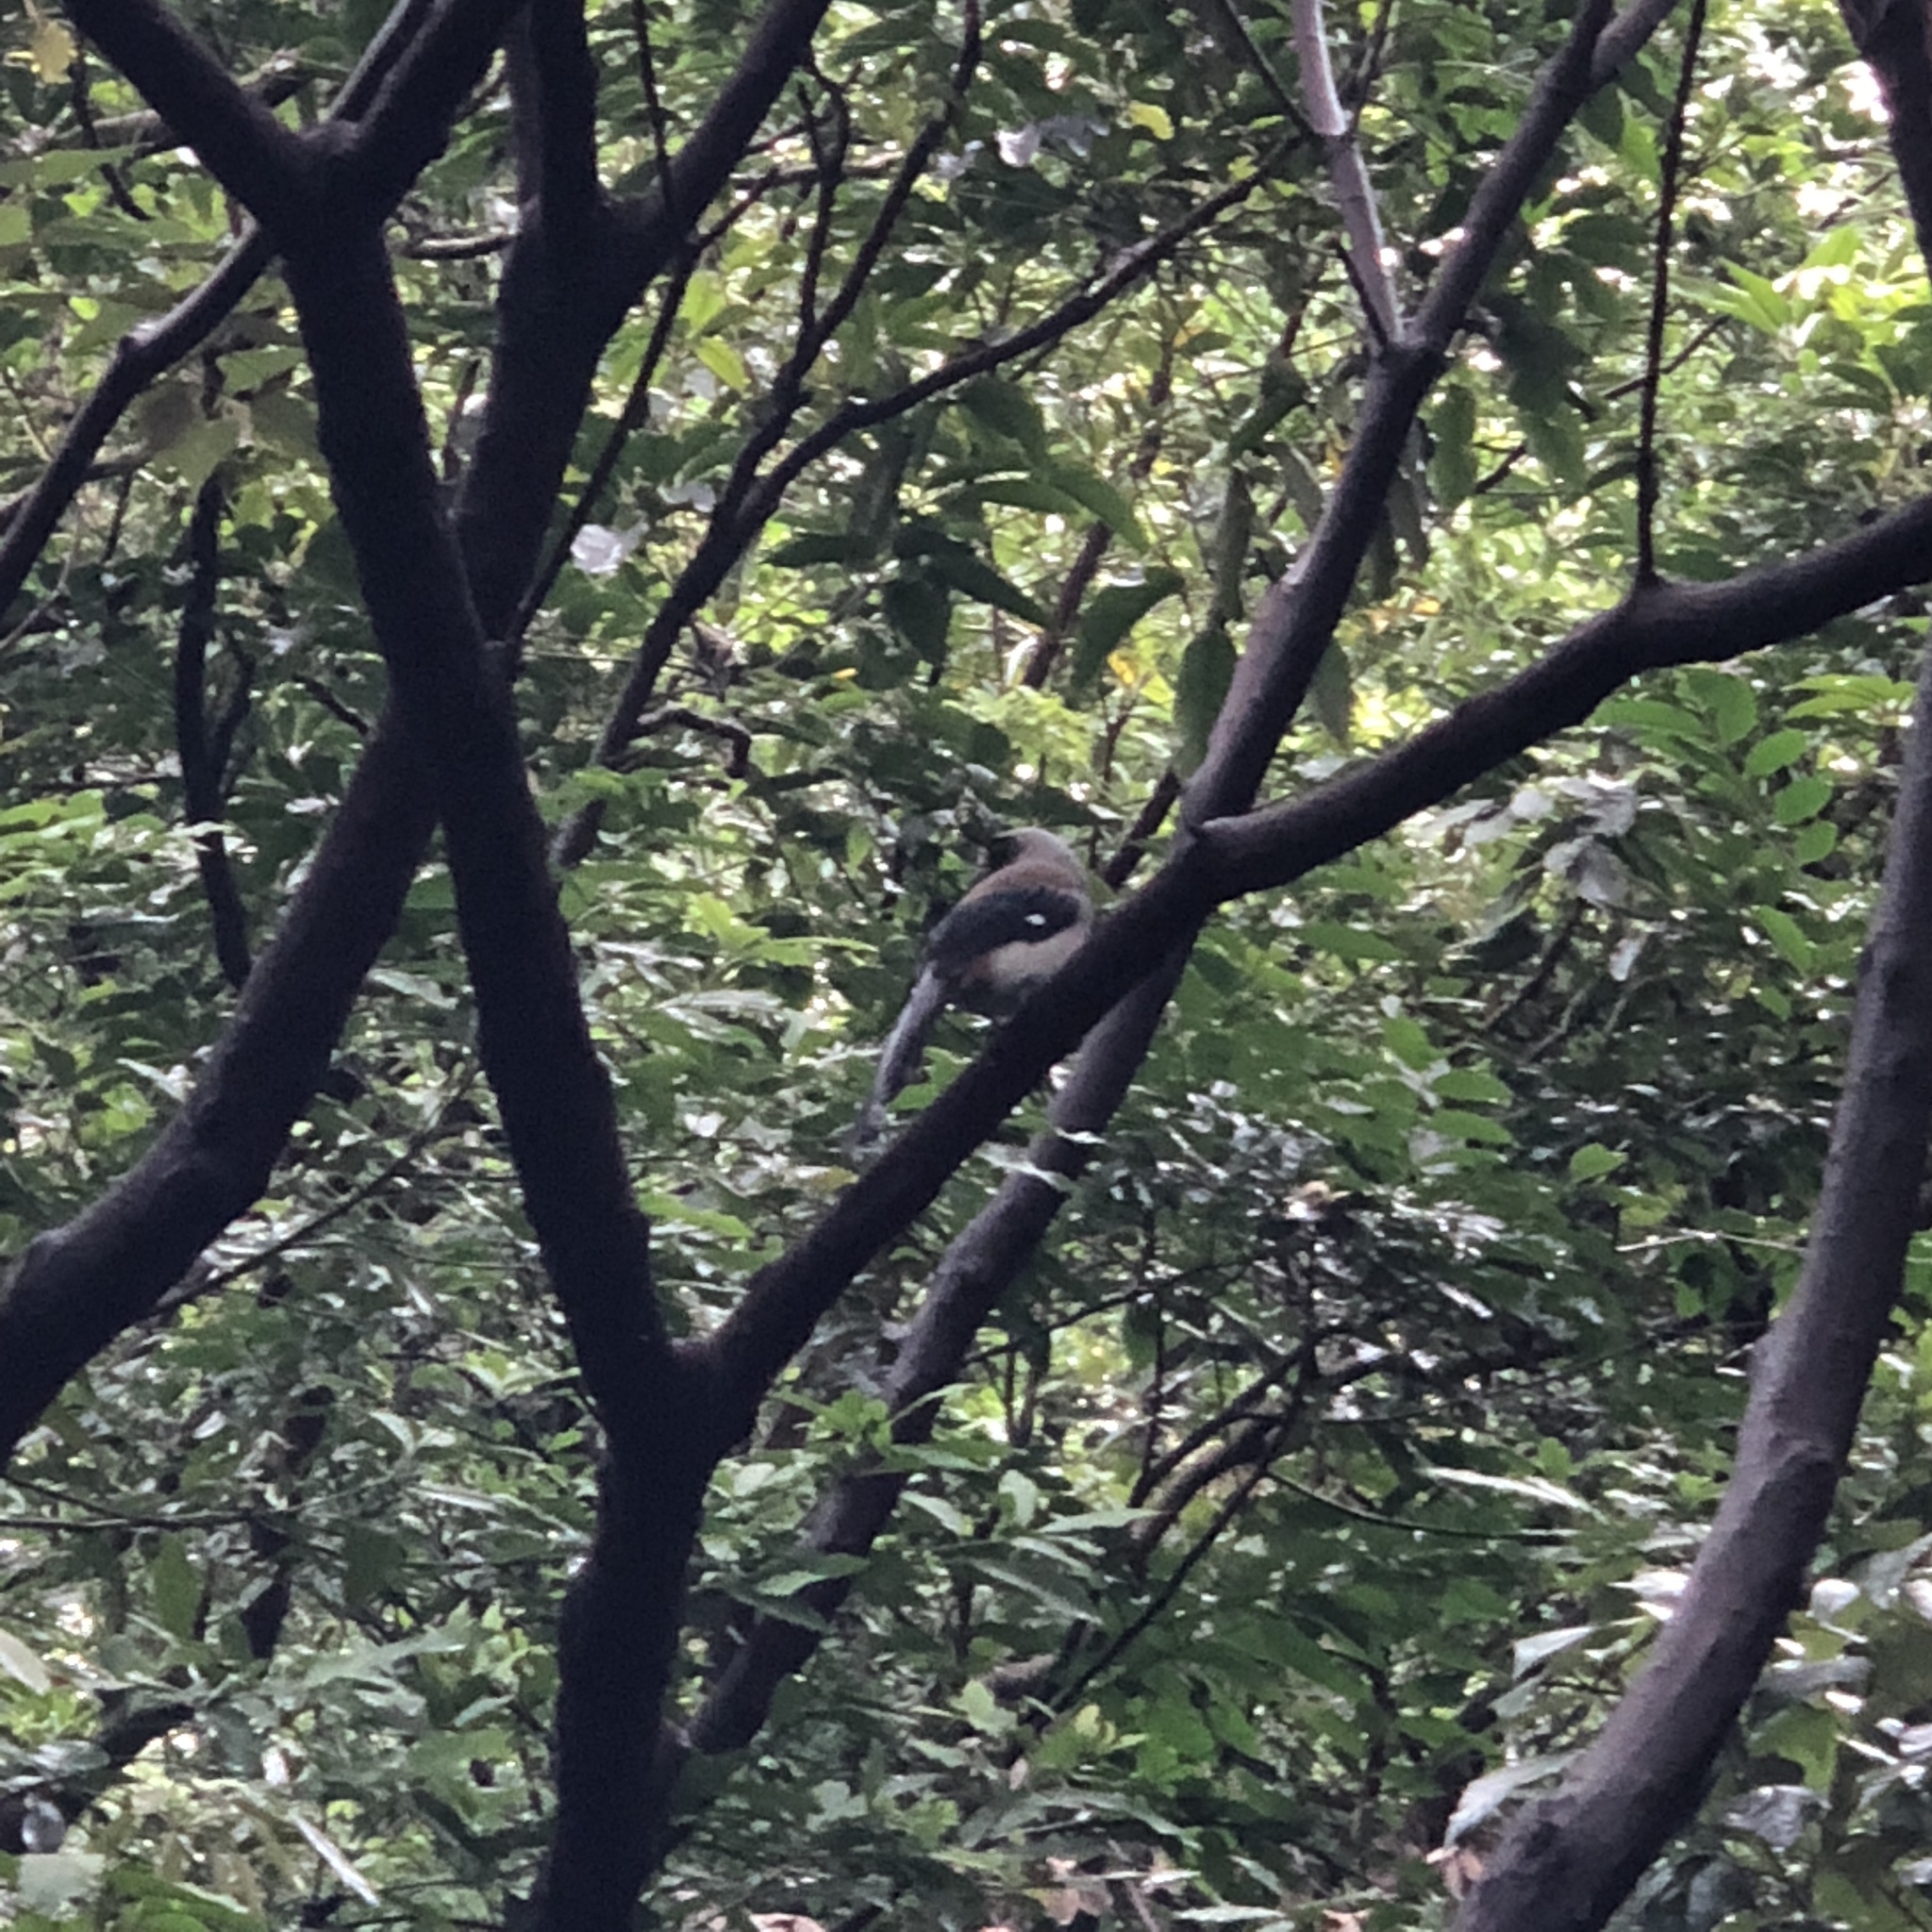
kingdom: Animalia
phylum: Chordata
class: Aves
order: Passeriformes
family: Corvidae
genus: Dendrocitta
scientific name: Dendrocitta formosae
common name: Grey treepie
